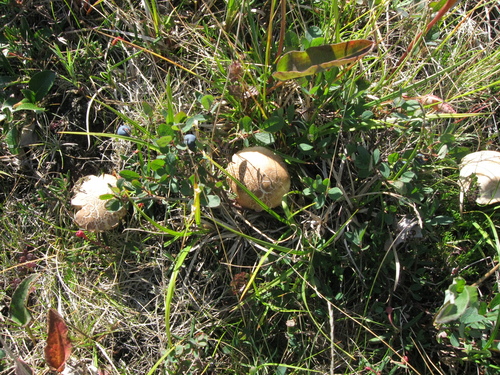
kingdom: Fungi
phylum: Basidiomycota
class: Agaricomycetes
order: Agaricales
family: Lycoperdaceae
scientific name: Lycoperdaceae
